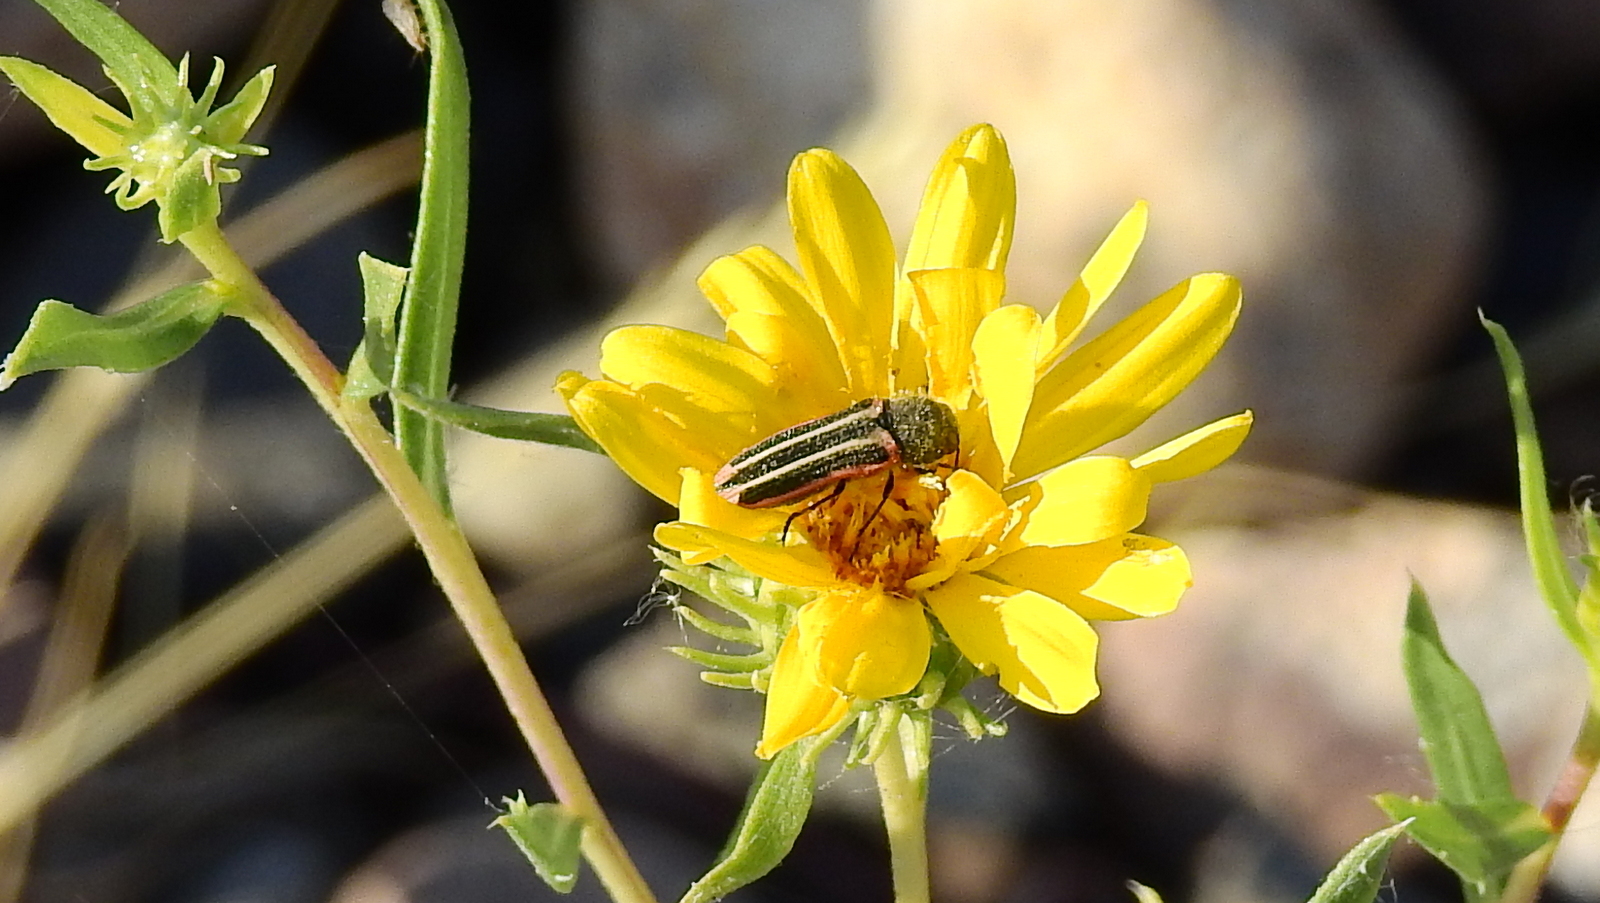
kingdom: Animalia
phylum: Arthropoda
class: Insecta
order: Coleoptera
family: Buprestidae
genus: Lasionota
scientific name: Lasionota alternans
